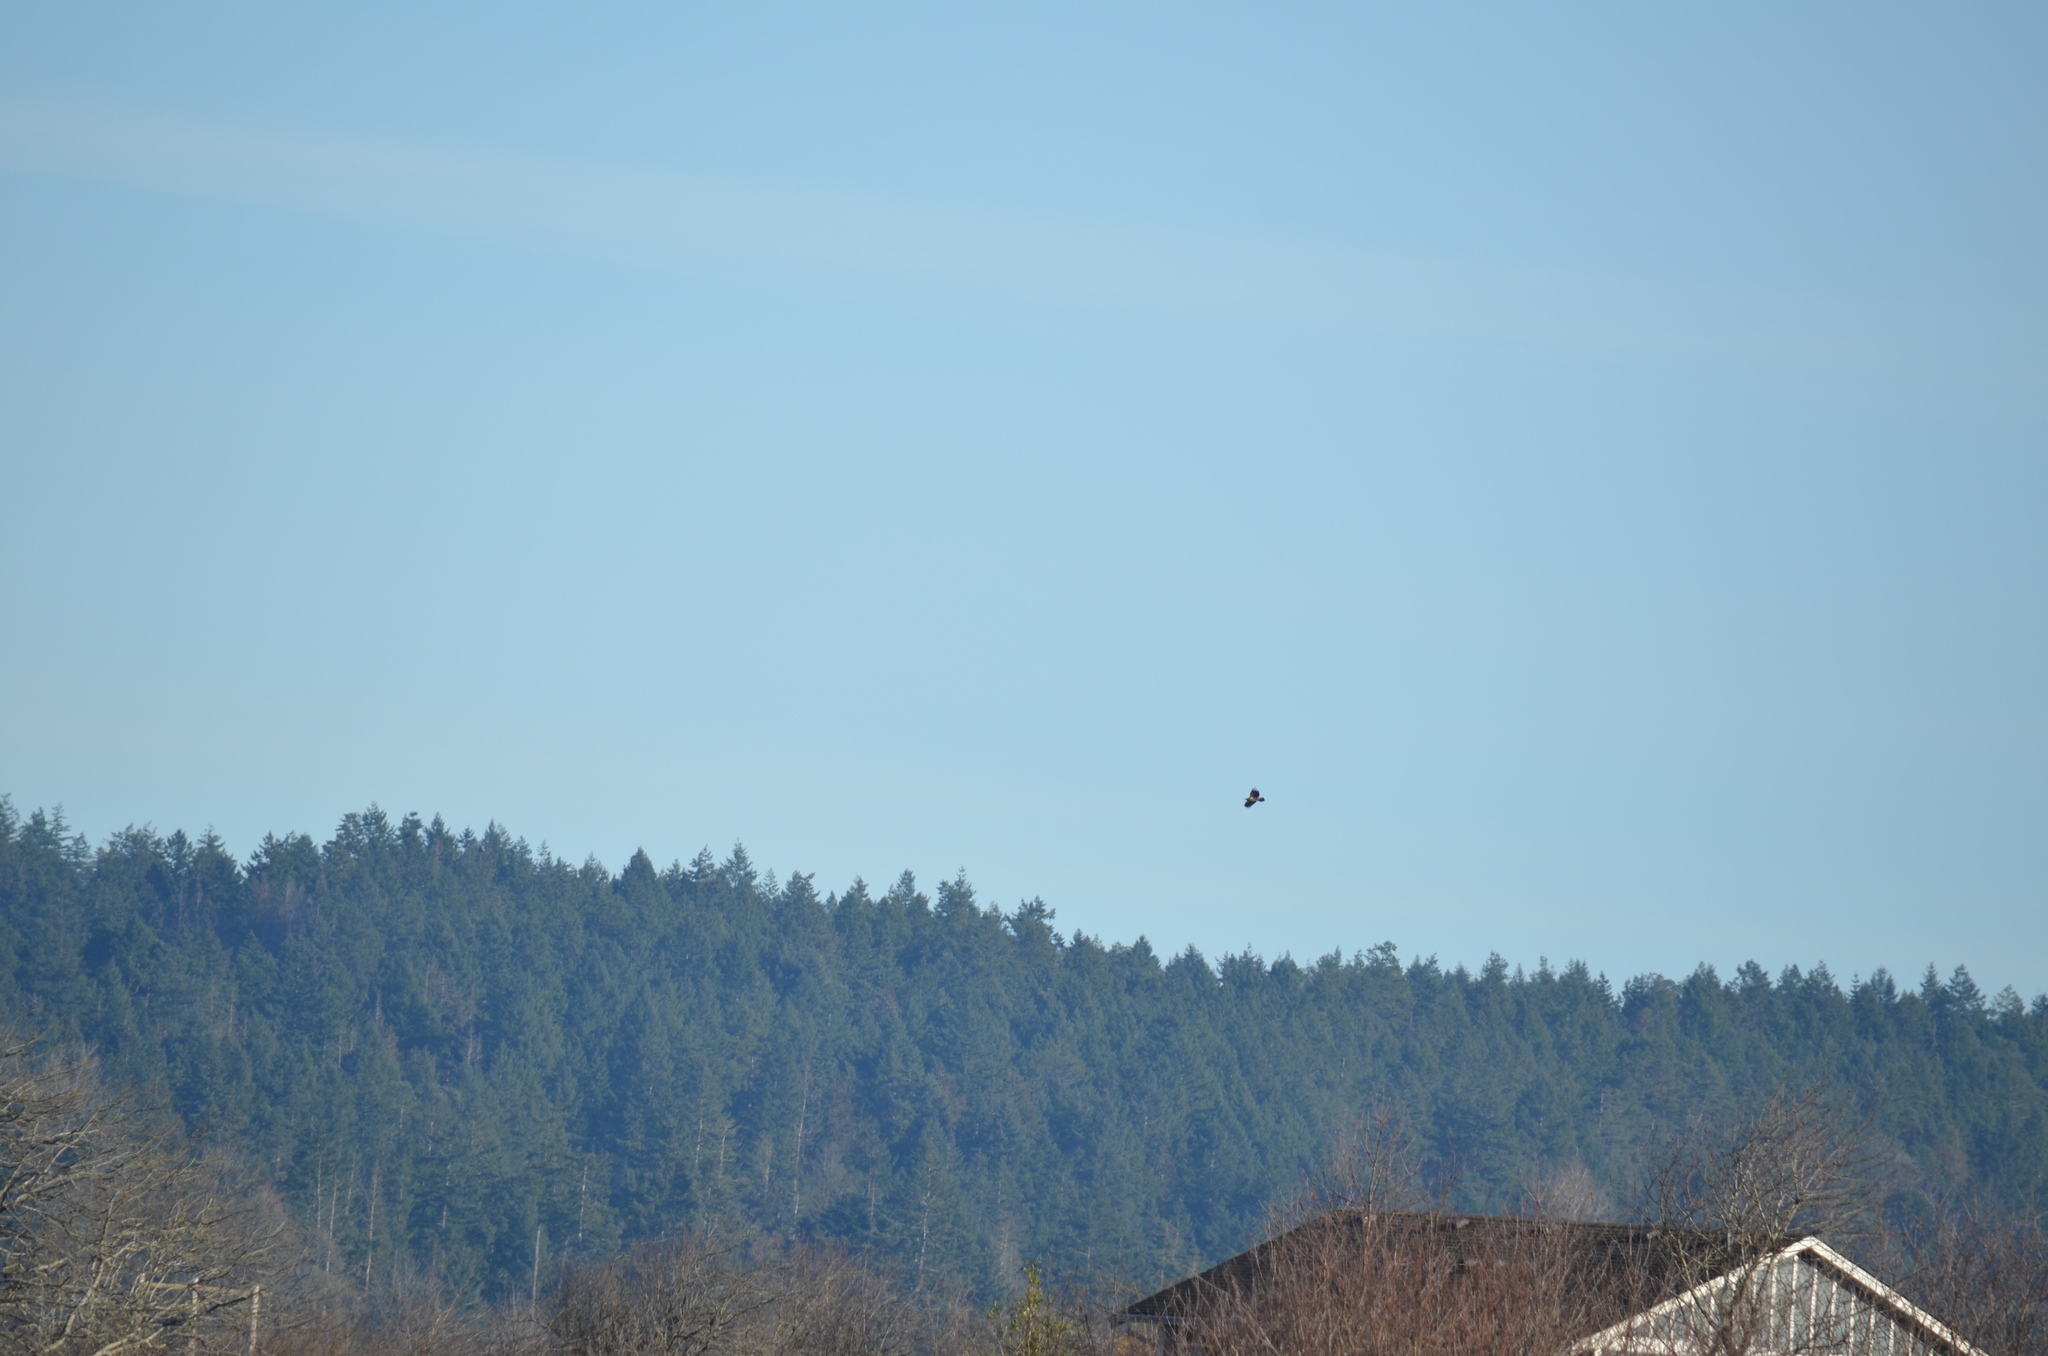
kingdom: Animalia
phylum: Chordata
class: Aves
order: Accipitriformes
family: Accipitridae
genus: Haliaeetus
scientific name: Haliaeetus leucocephalus
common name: Bald eagle
